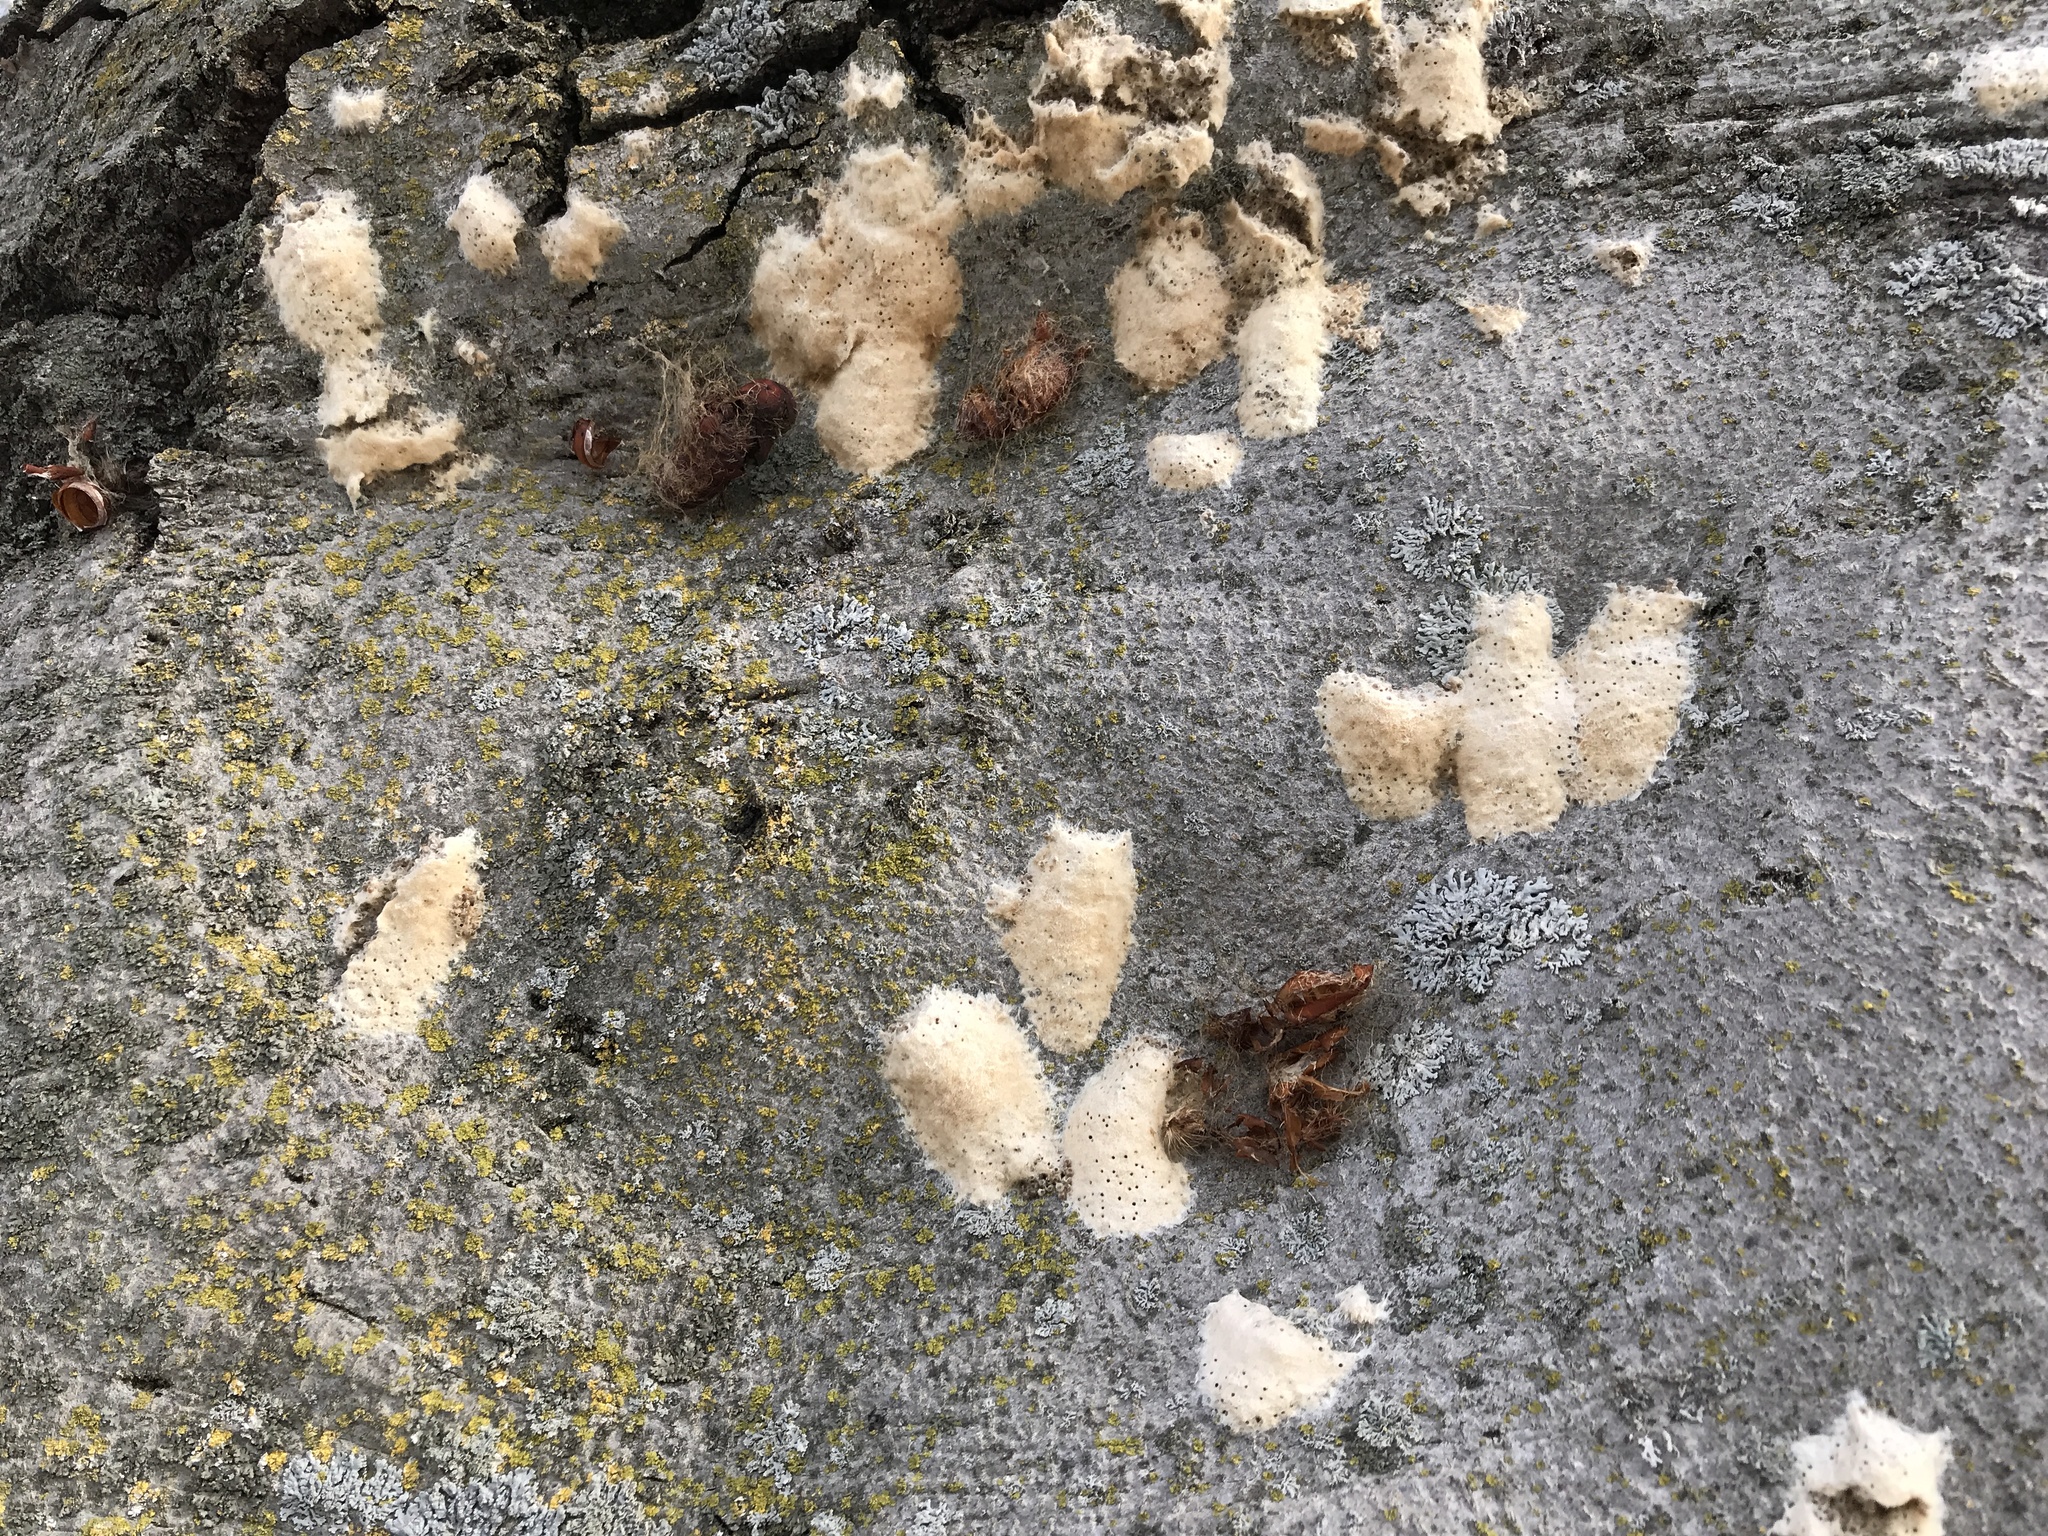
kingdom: Animalia
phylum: Arthropoda
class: Insecta
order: Lepidoptera
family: Erebidae
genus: Lymantria
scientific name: Lymantria dispar
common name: Gypsy moth
